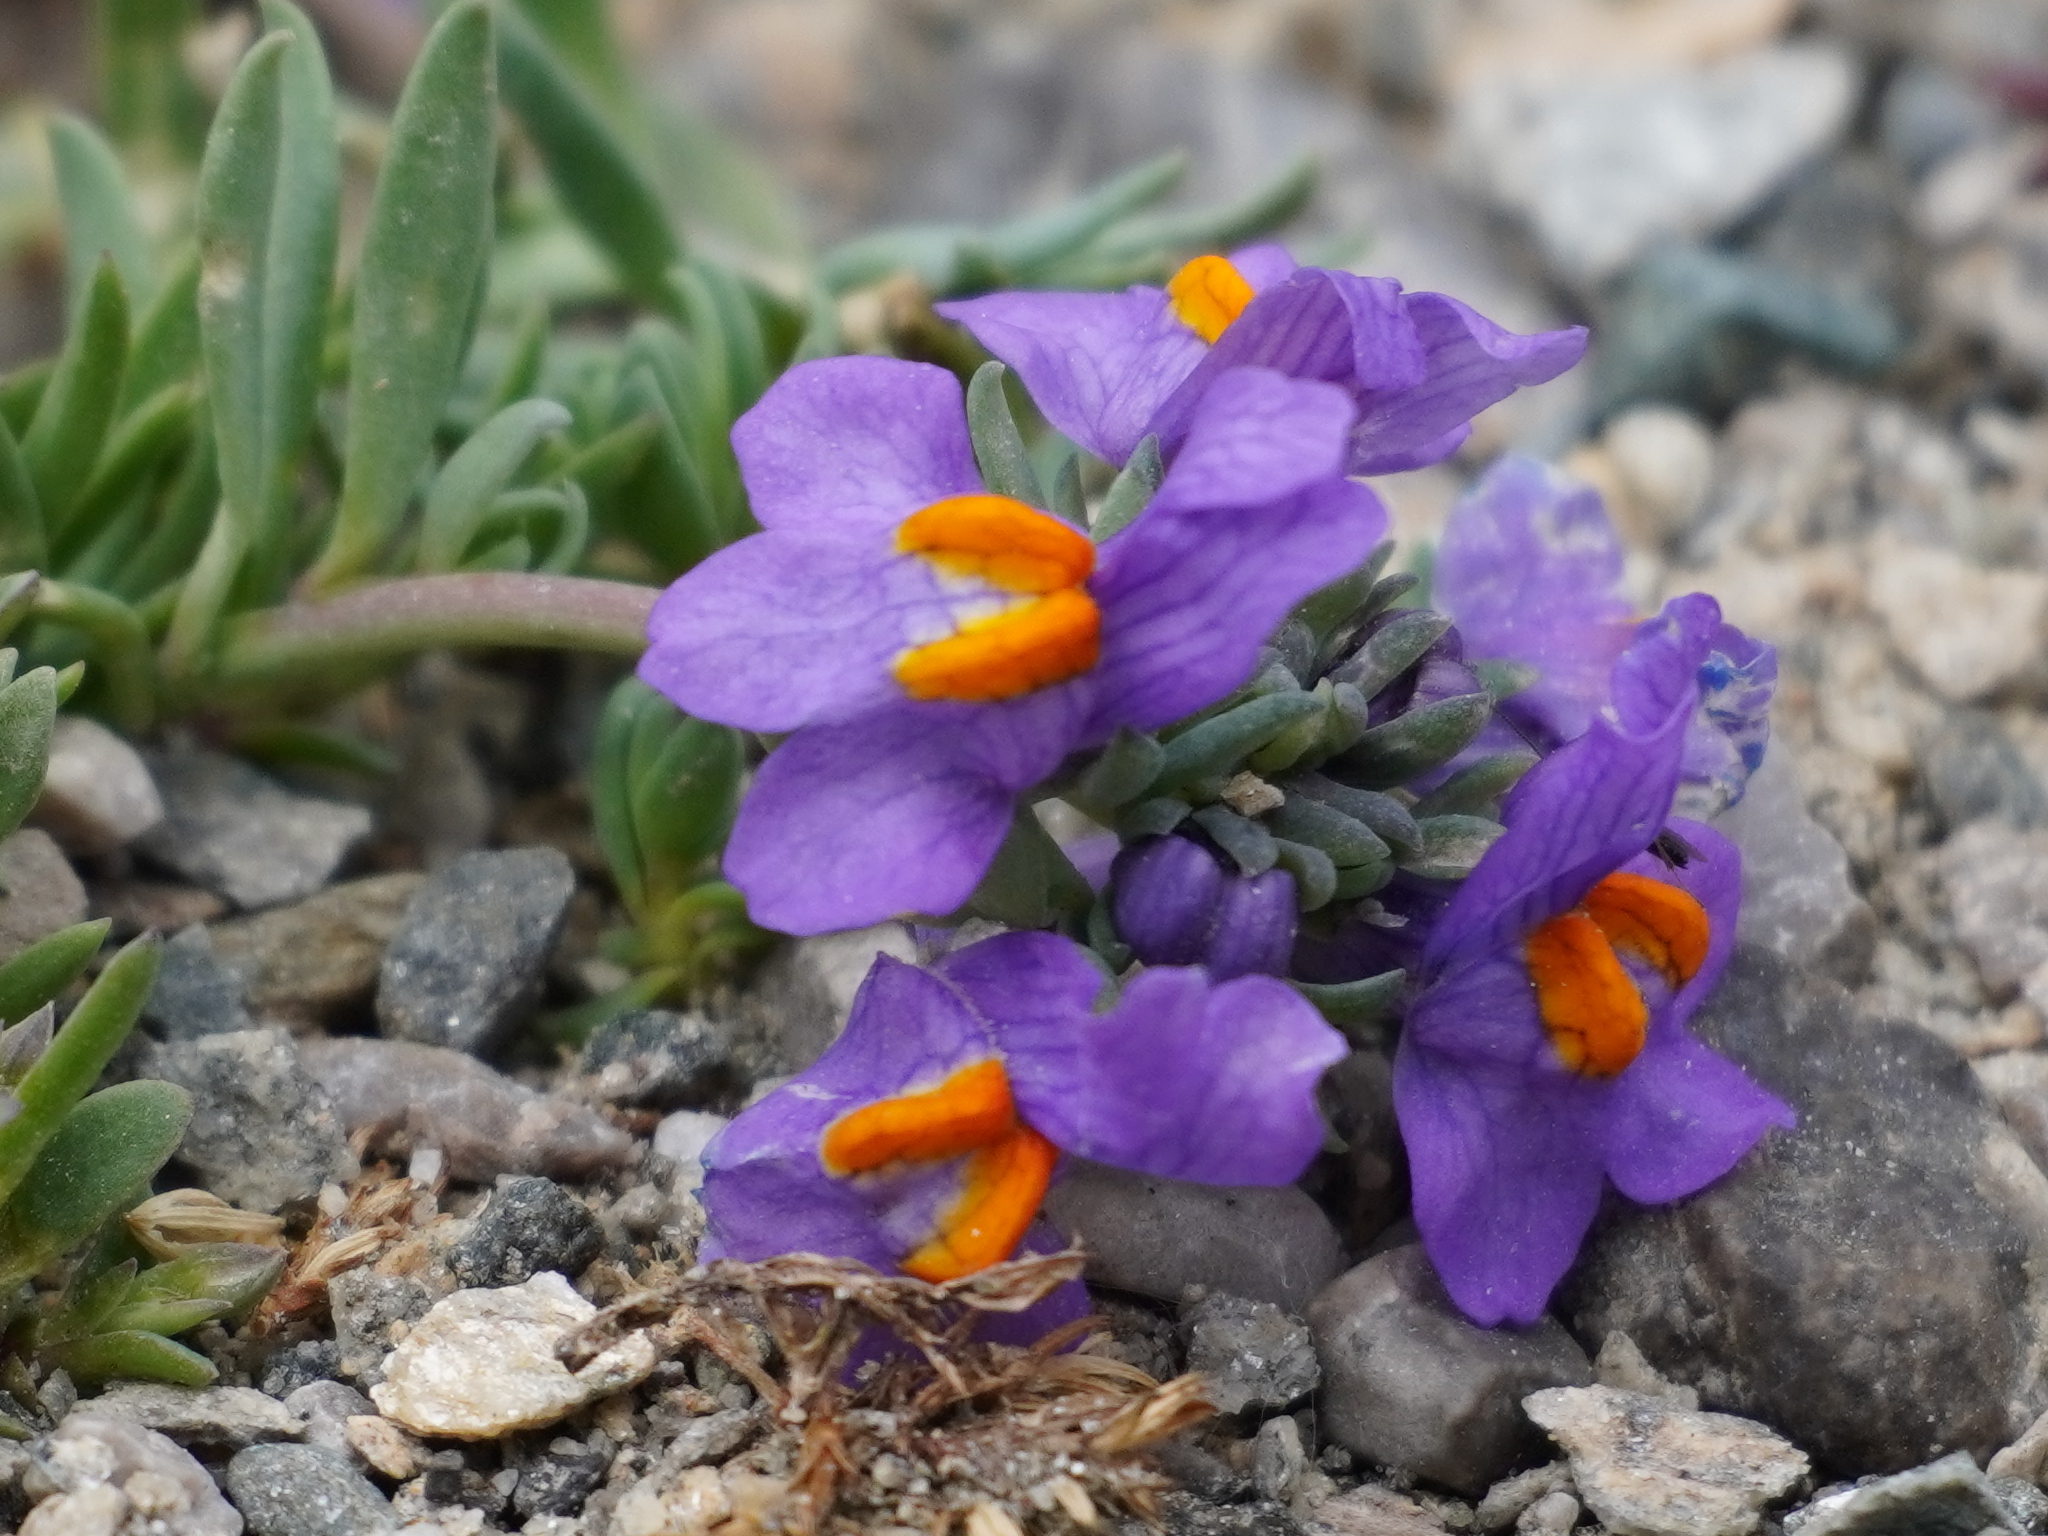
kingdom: Plantae
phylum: Tracheophyta
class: Magnoliopsida
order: Lamiales
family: Plantaginaceae
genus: Linaria
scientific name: Linaria alpina
